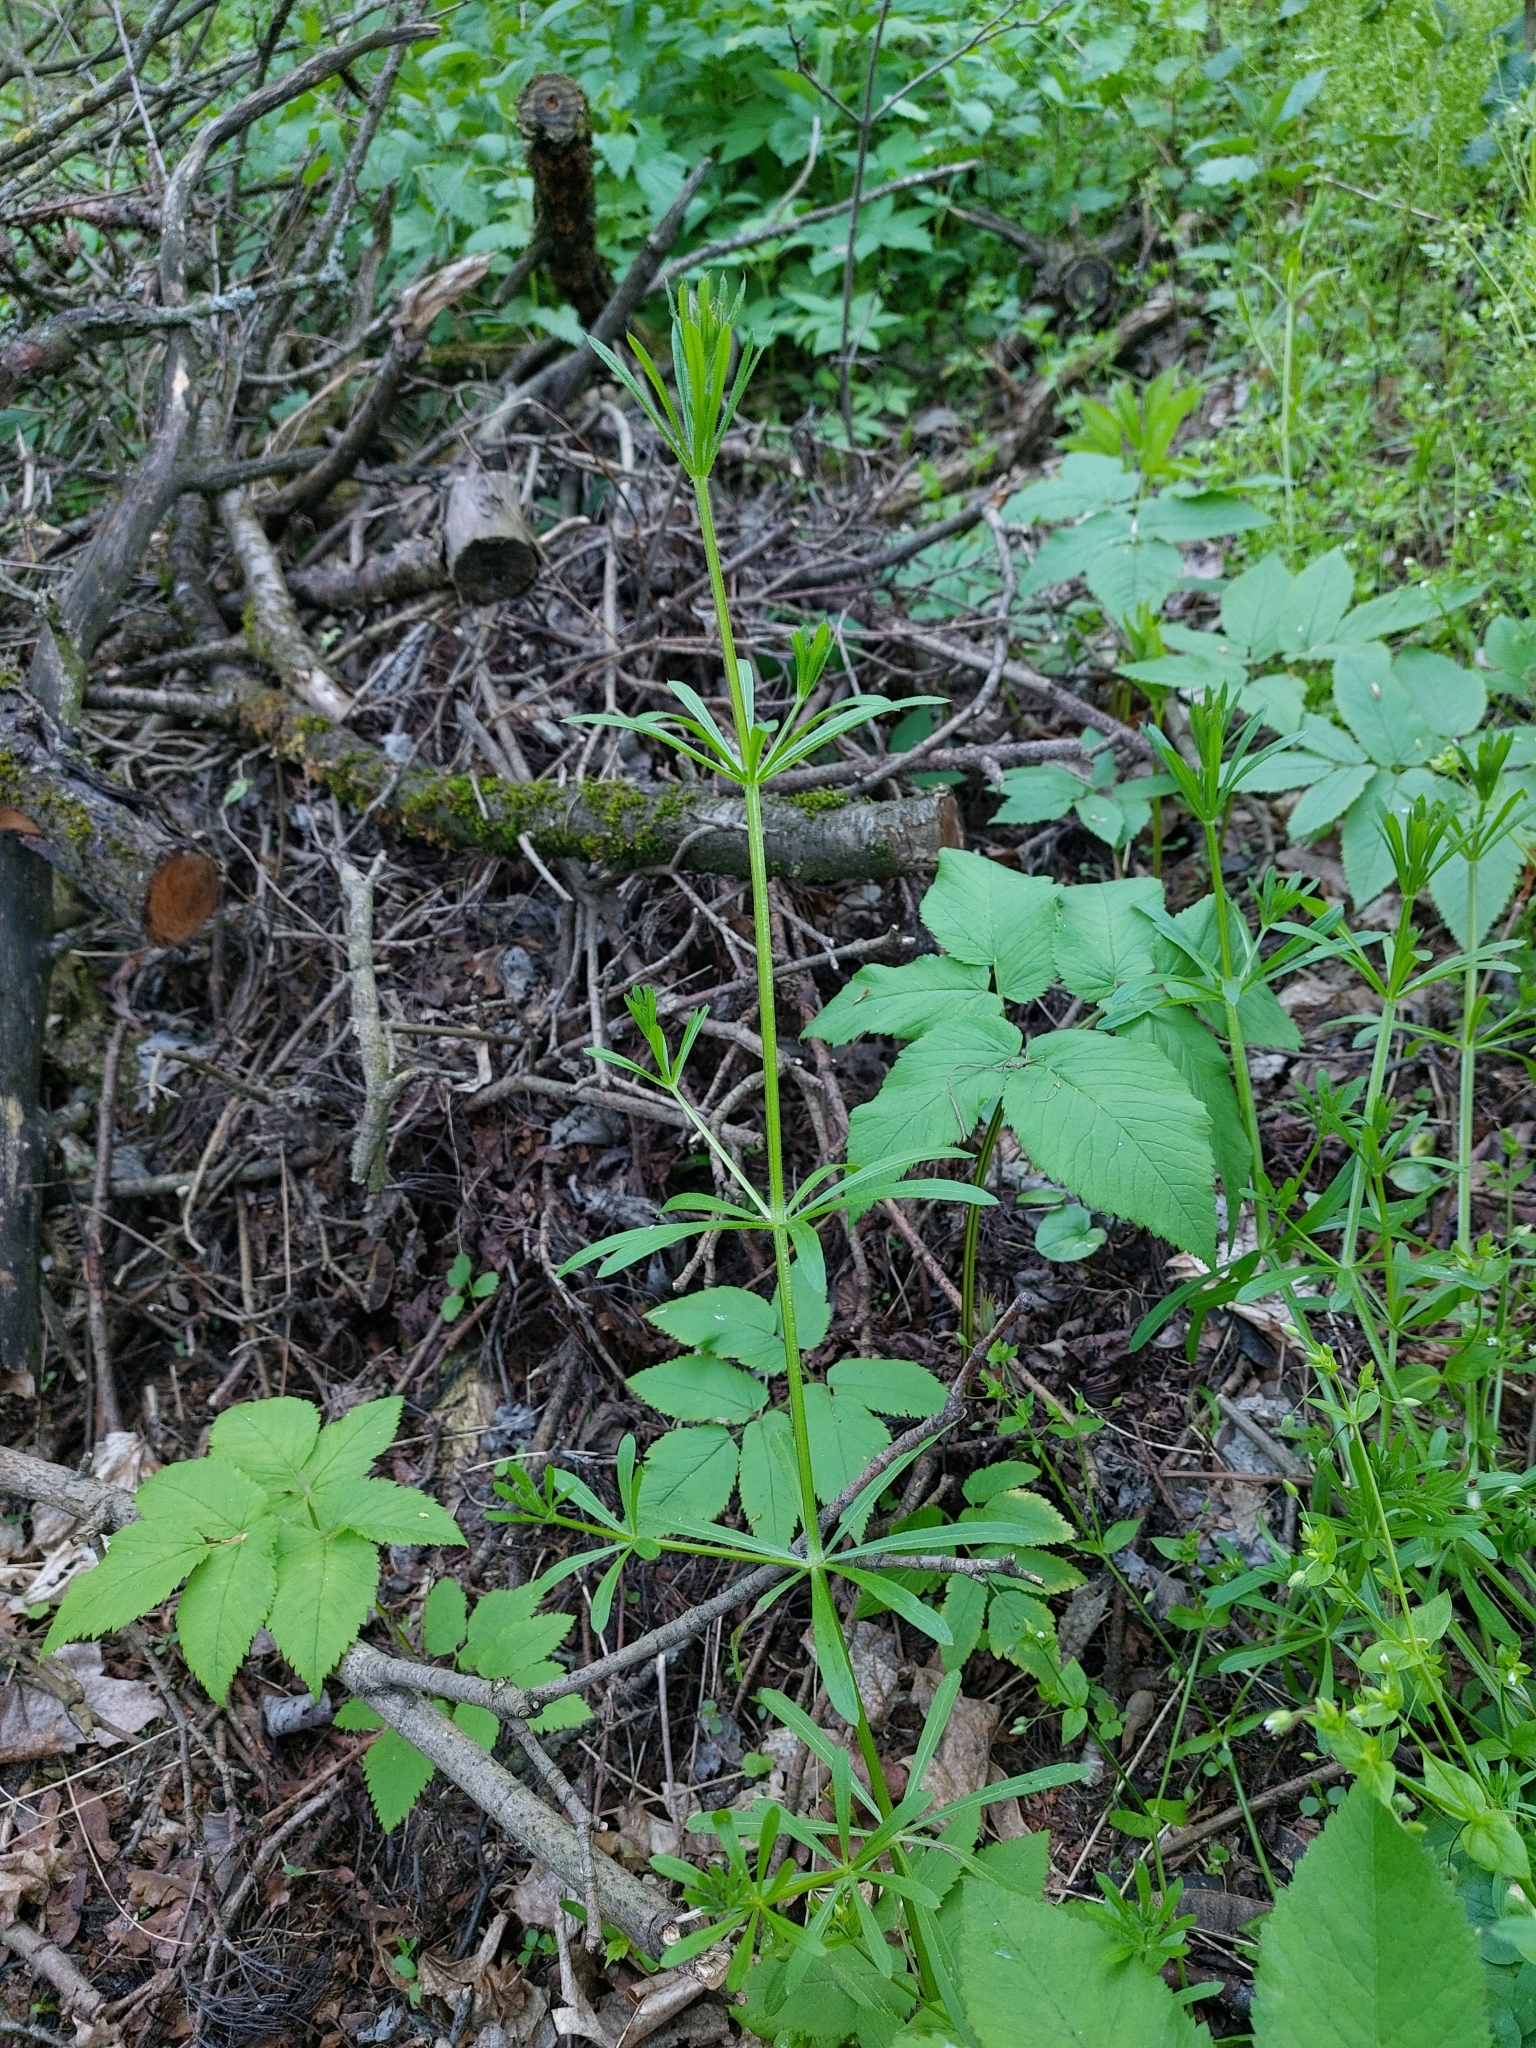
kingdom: Plantae
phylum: Tracheophyta
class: Magnoliopsida
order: Gentianales
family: Rubiaceae
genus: Galium
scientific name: Galium aparine
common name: Cleavers
